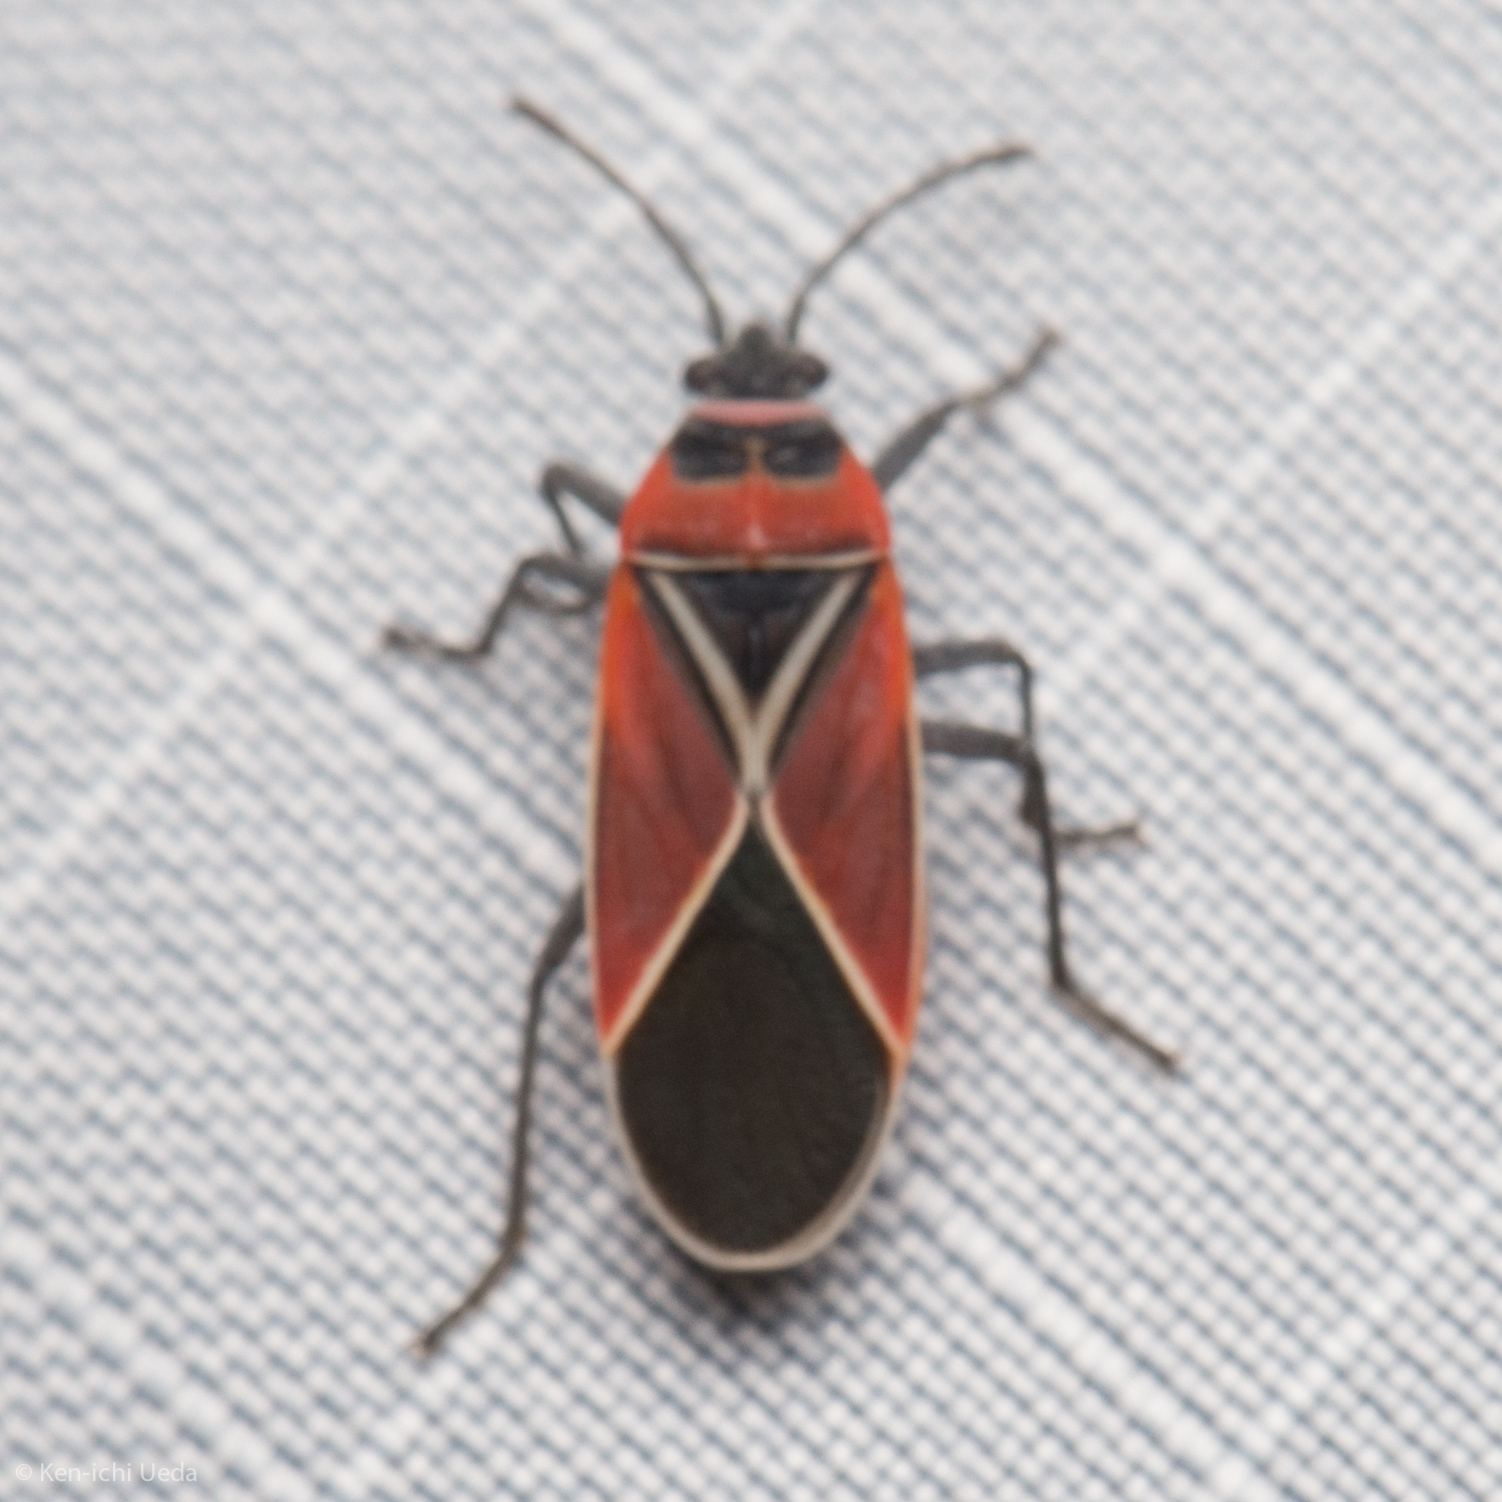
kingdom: Animalia
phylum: Arthropoda
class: Insecta
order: Hemiptera
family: Lygaeidae
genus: Neacoryphus
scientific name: Neacoryphus bicrucis
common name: Lygaeid bug
